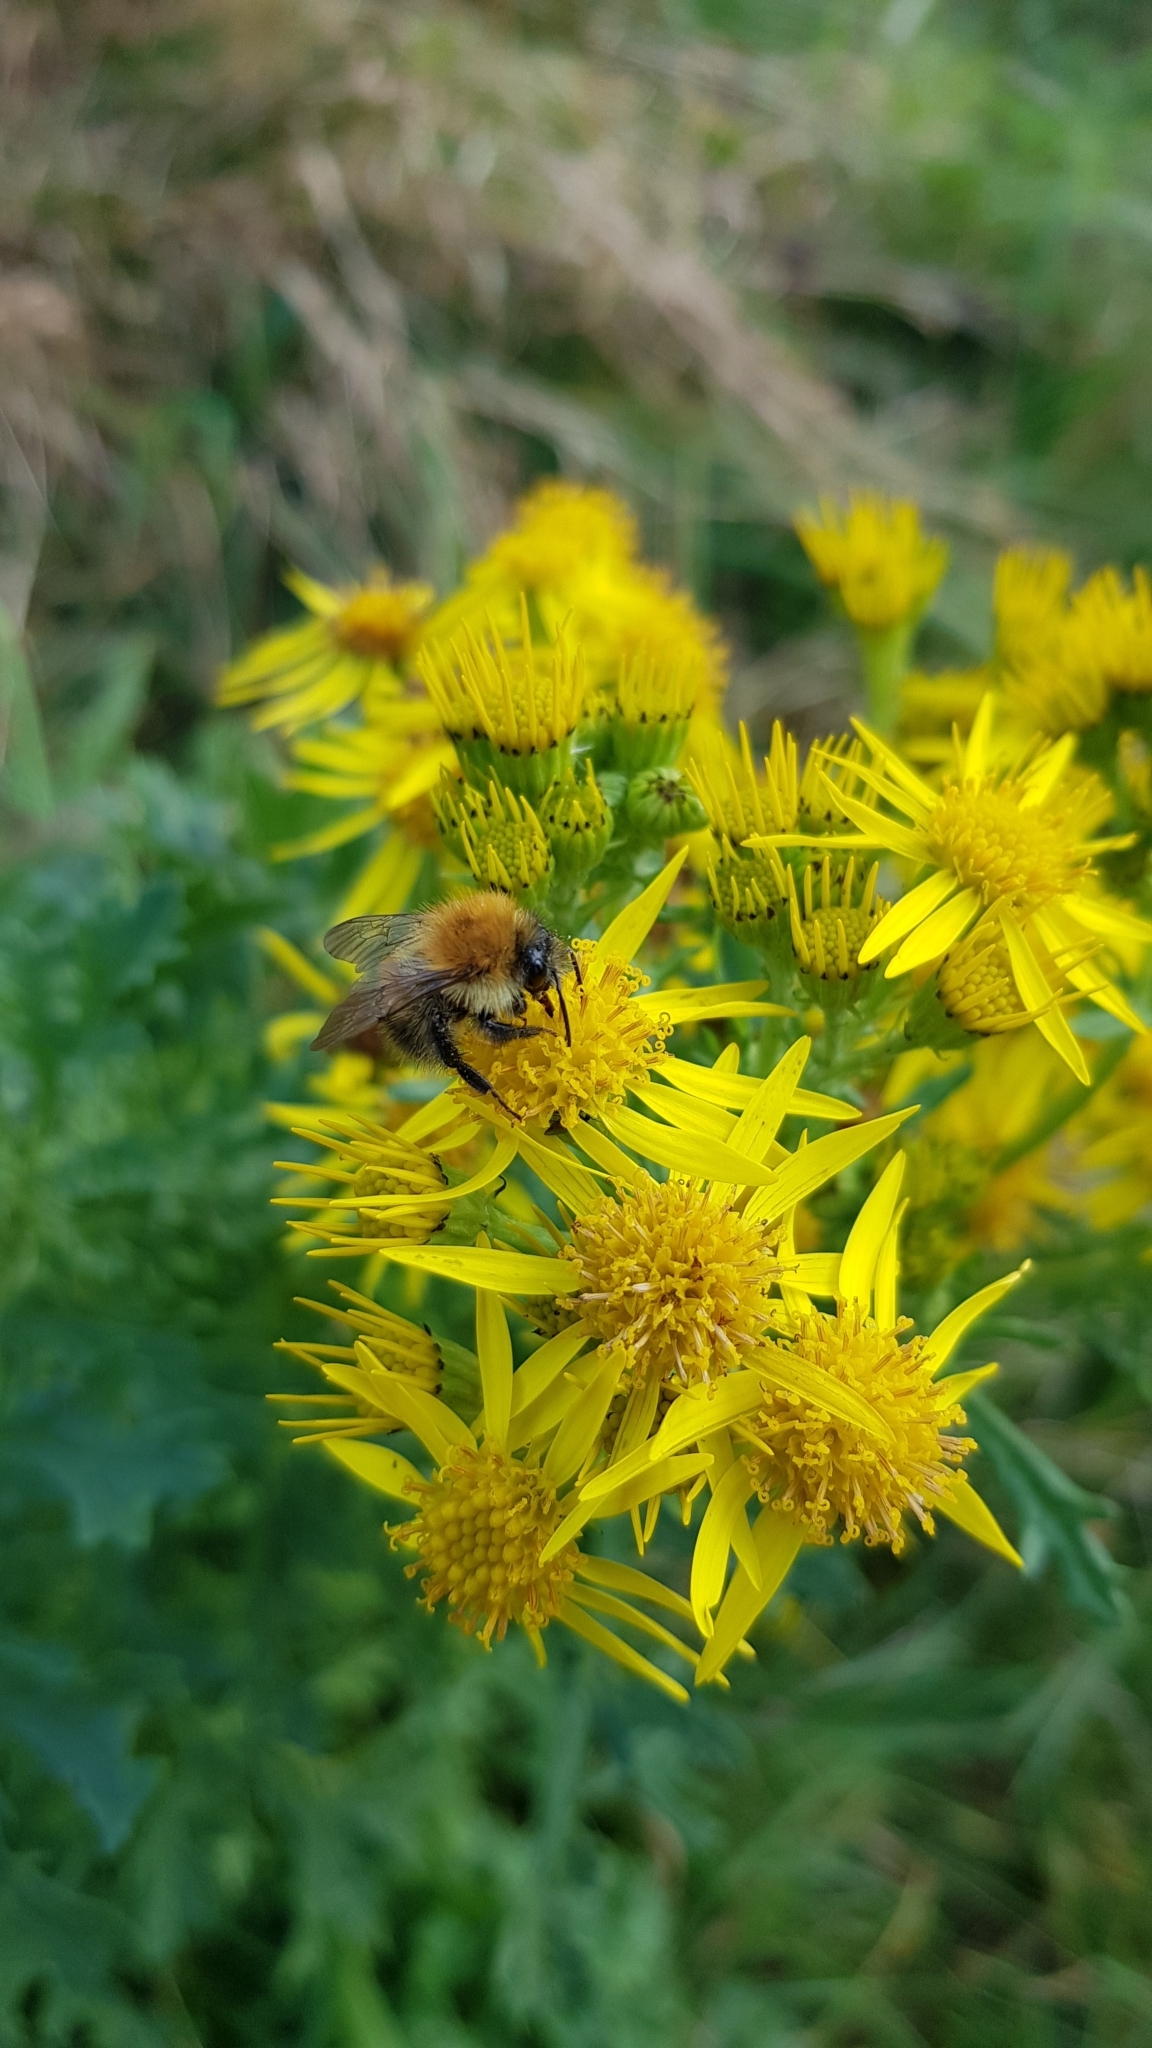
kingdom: Plantae
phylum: Tracheophyta
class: Magnoliopsida
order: Asterales
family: Asteraceae
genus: Jacobaea
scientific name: Jacobaea vulgaris
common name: Stinking willie
